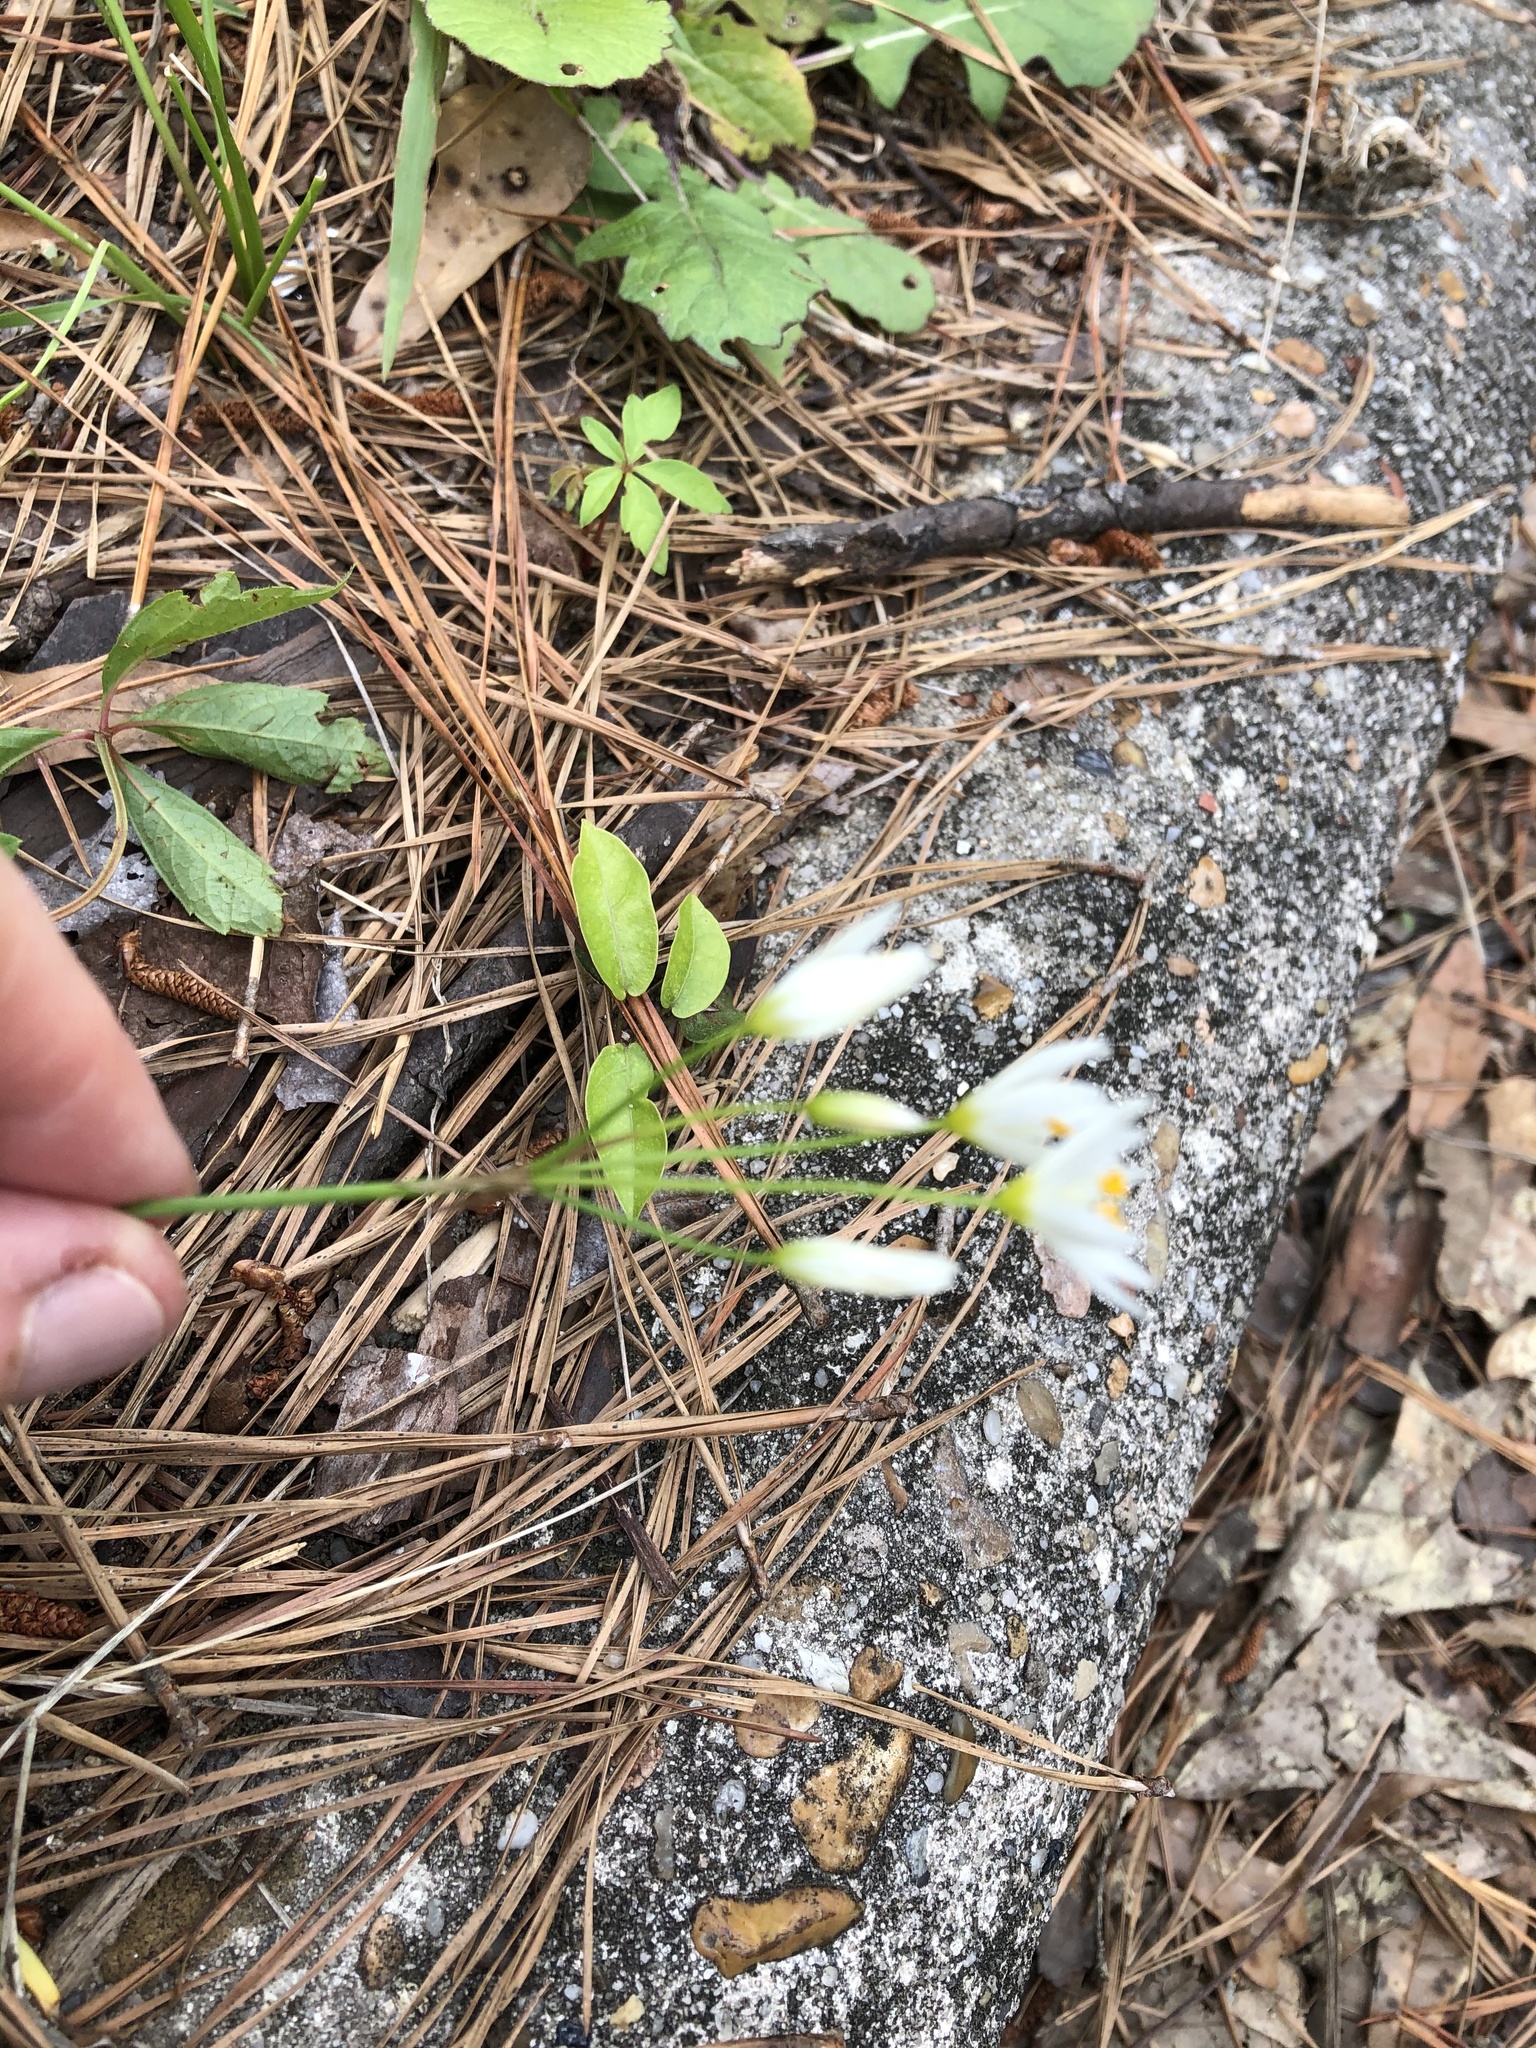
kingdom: Plantae
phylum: Tracheophyta
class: Liliopsida
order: Asparagales
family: Amaryllidaceae
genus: Nothoscordum
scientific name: Nothoscordum bivalve
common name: Crow-poison
